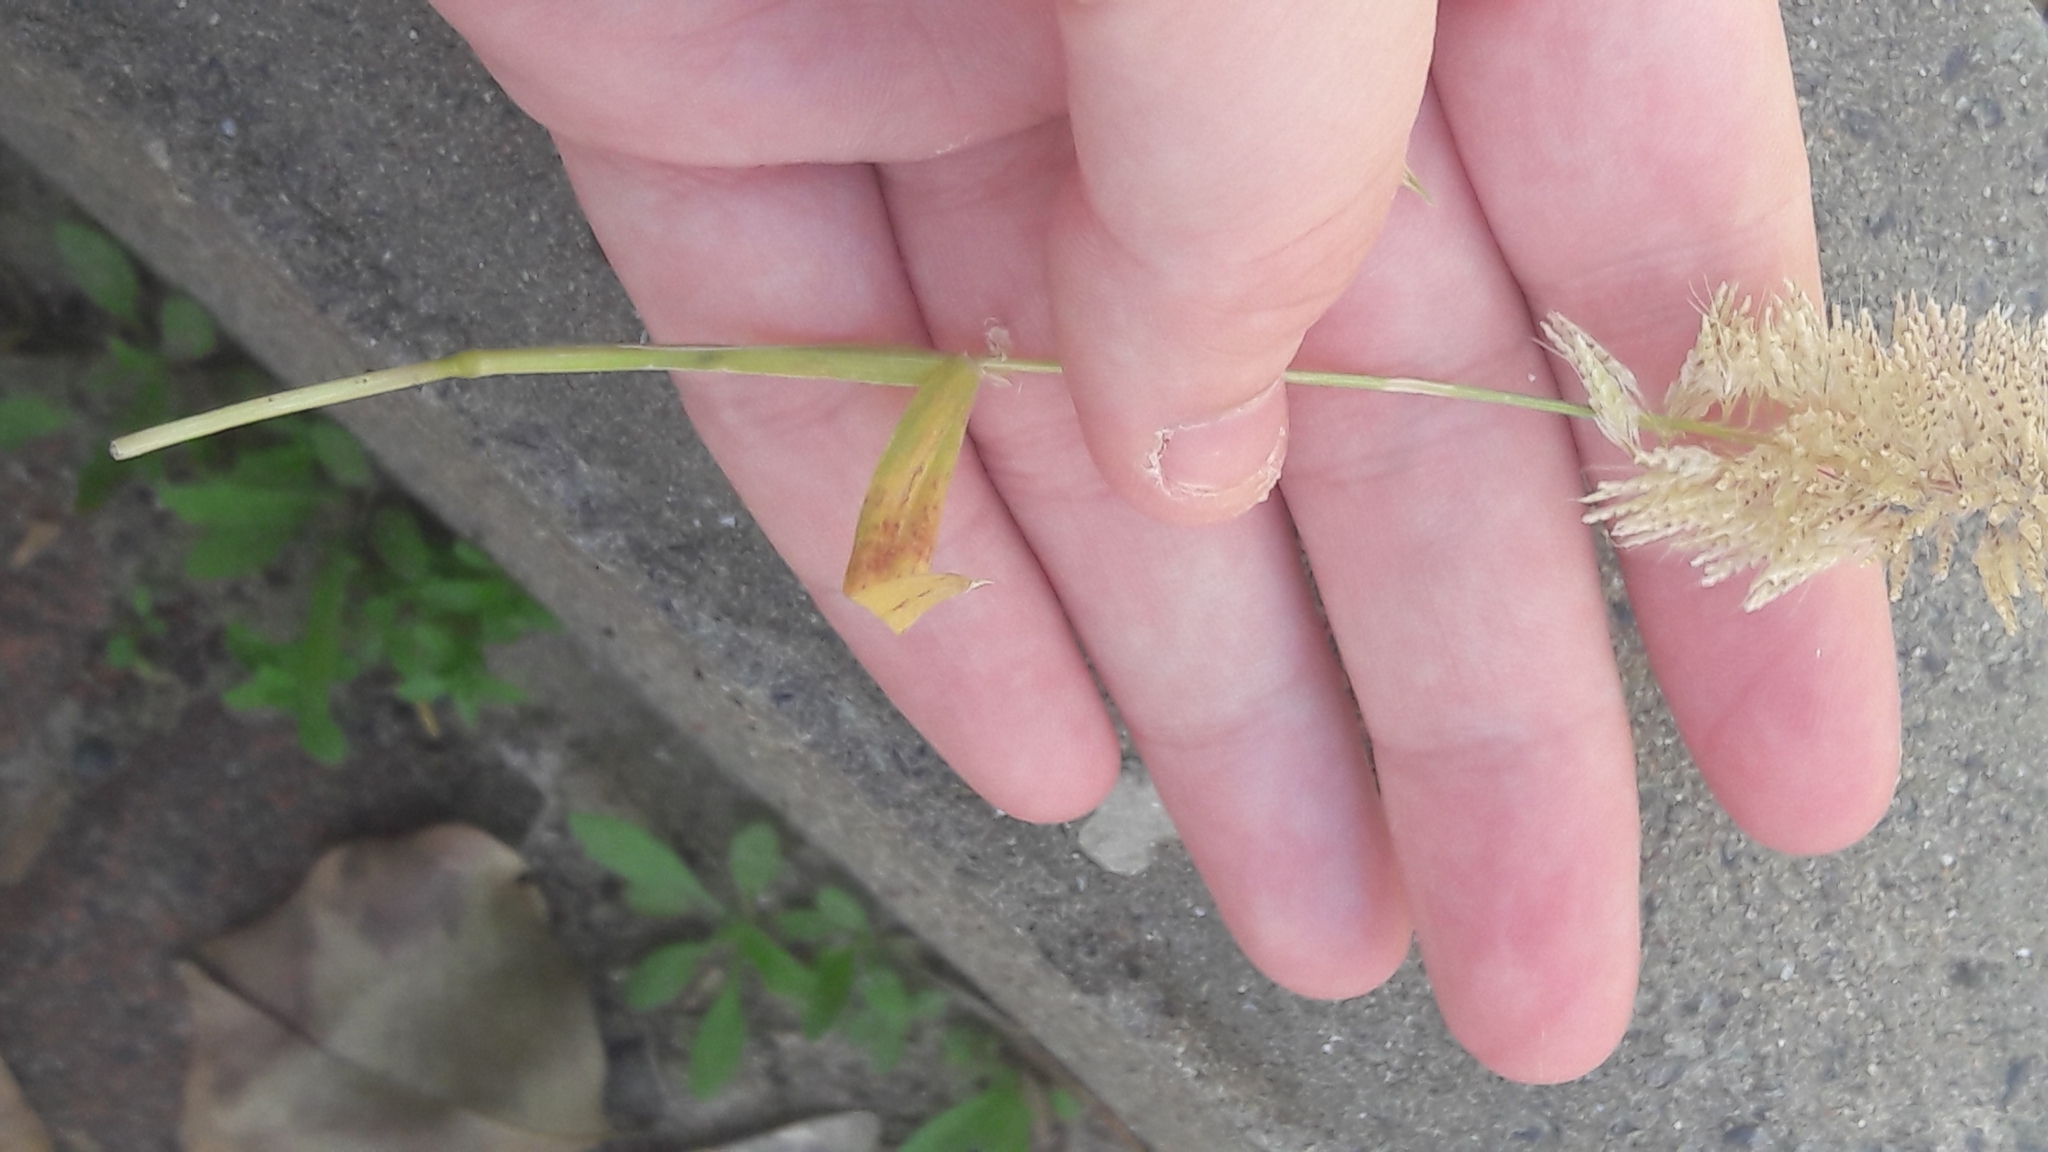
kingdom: Plantae
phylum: Tracheophyta
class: Liliopsida
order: Poales
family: Poaceae
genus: Lamarckia
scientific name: Lamarckia aurea
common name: Golden dog's-tail
